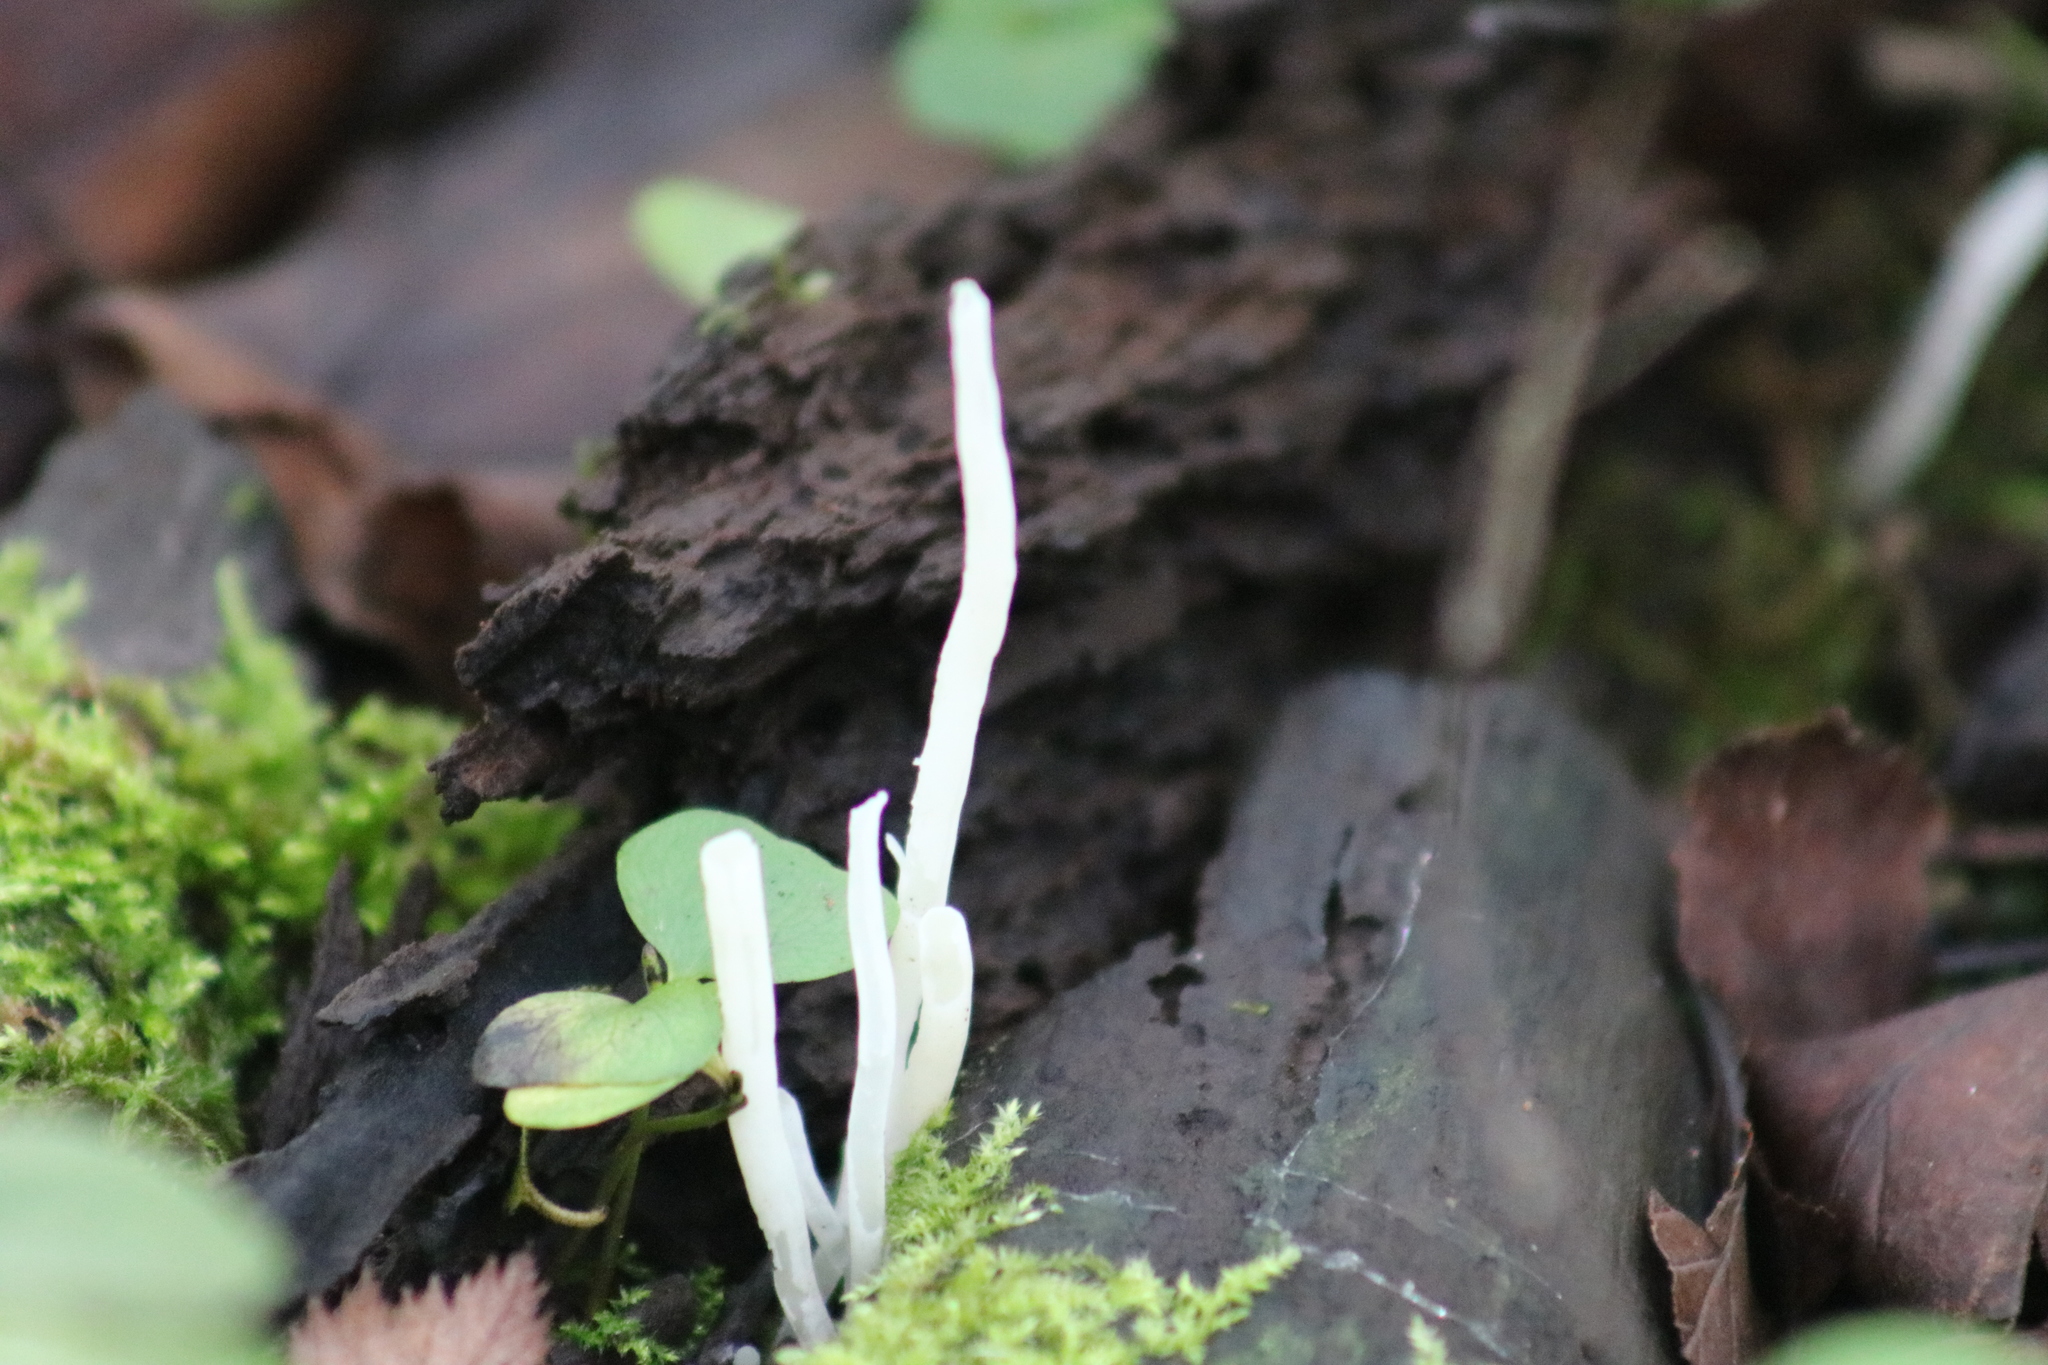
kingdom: Fungi
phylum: Basidiomycota
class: Agaricomycetes
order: Agaricales
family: Clavariaceae
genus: Clavaria
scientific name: Clavaria fragilis
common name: White spindles
